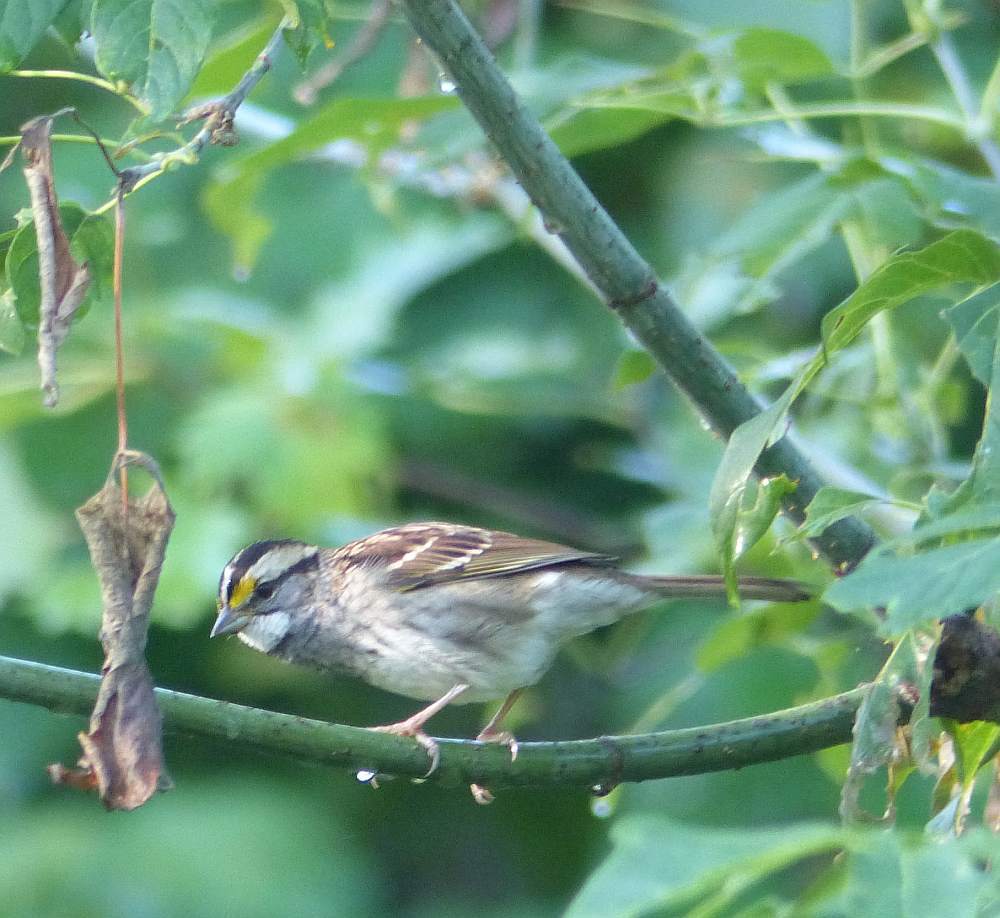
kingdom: Animalia
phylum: Chordata
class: Aves
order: Passeriformes
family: Passerellidae
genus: Zonotrichia
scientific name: Zonotrichia albicollis
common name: White-throated sparrow
